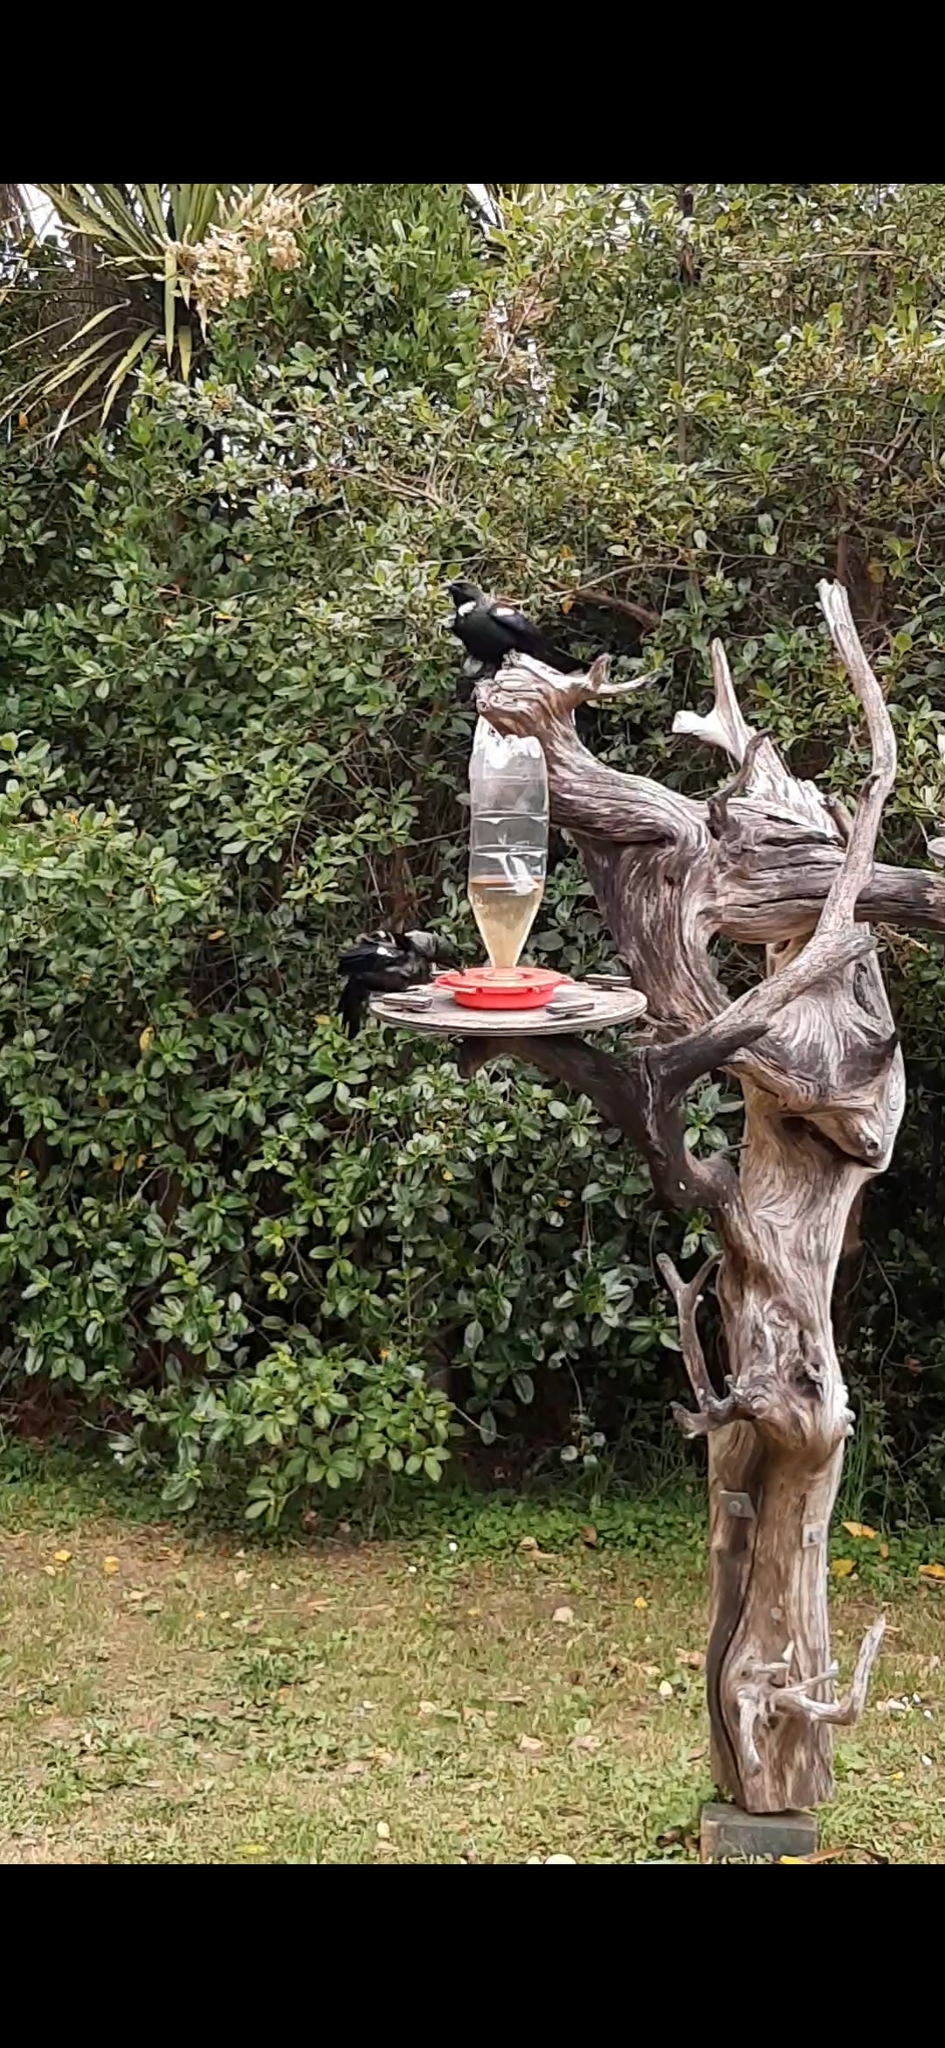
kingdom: Animalia
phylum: Chordata
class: Aves
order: Passeriformes
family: Meliphagidae
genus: Prosthemadera
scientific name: Prosthemadera novaeseelandiae
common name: Tui
